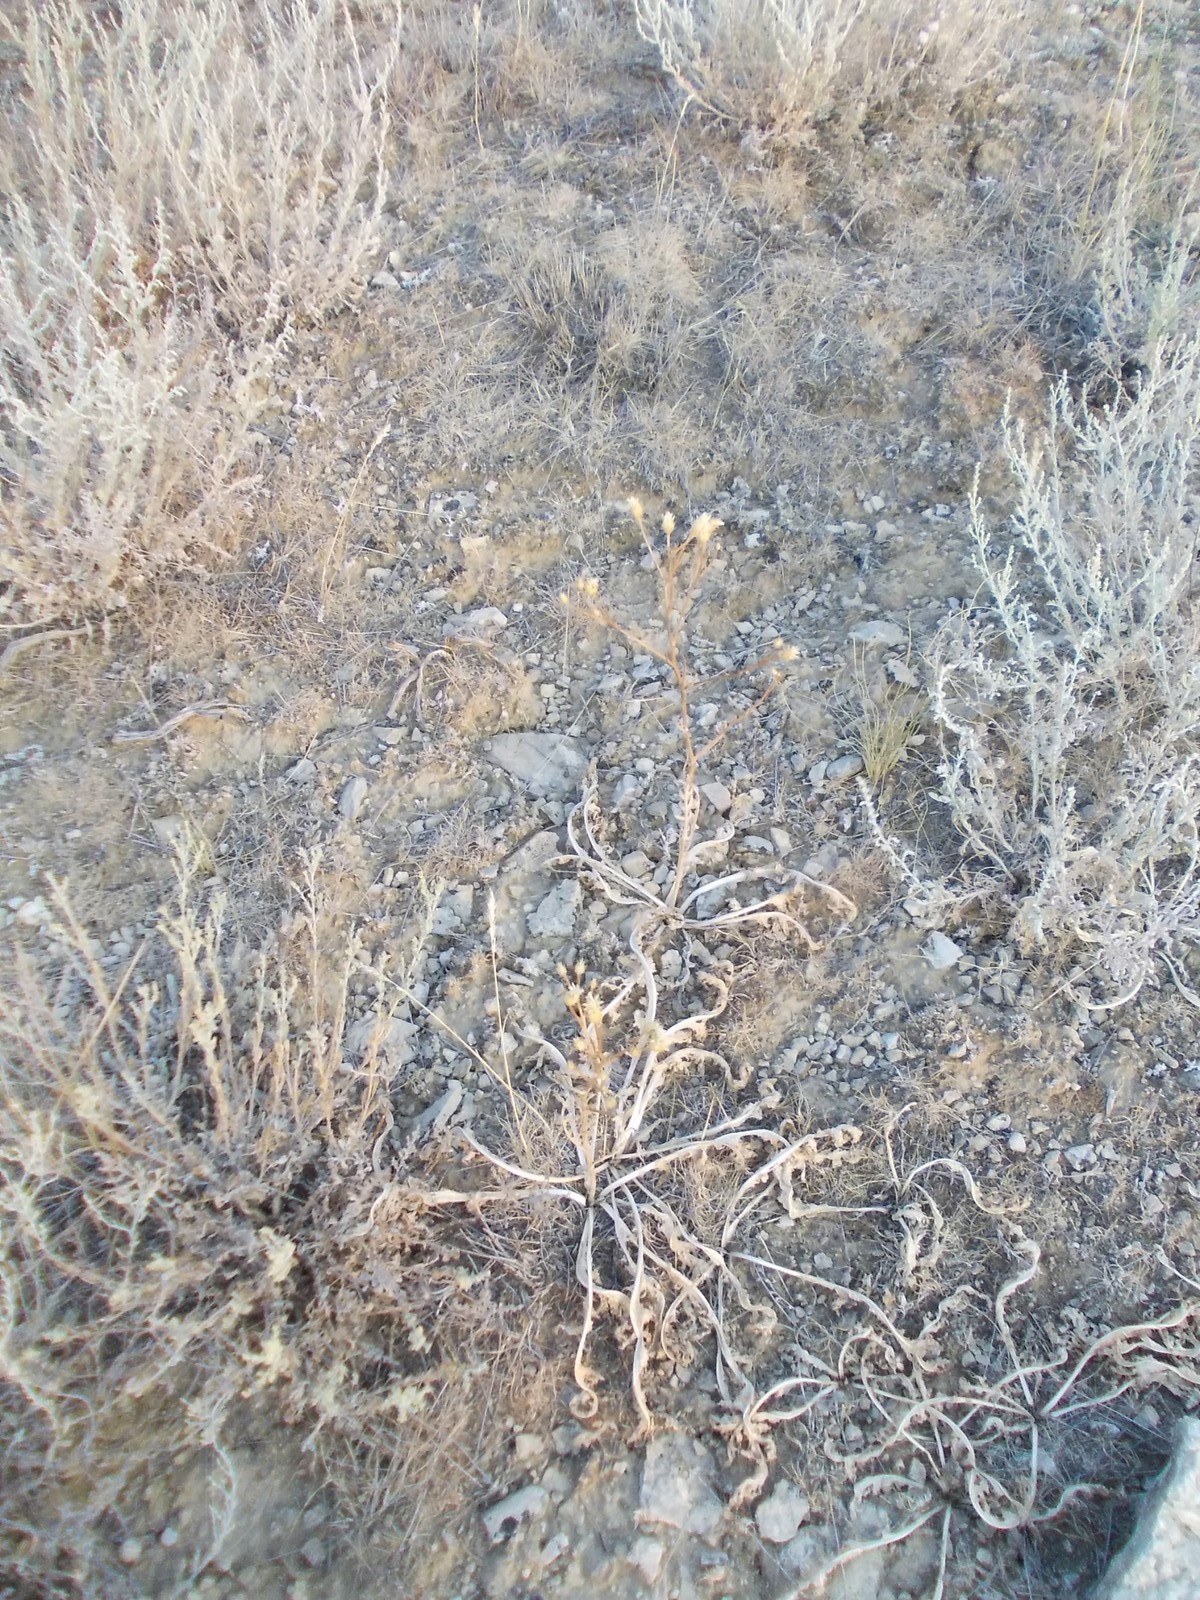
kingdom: Plantae
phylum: Tracheophyta
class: Magnoliopsida
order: Asterales
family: Asteraceae
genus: Klasea
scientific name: Klasea erucifolia
